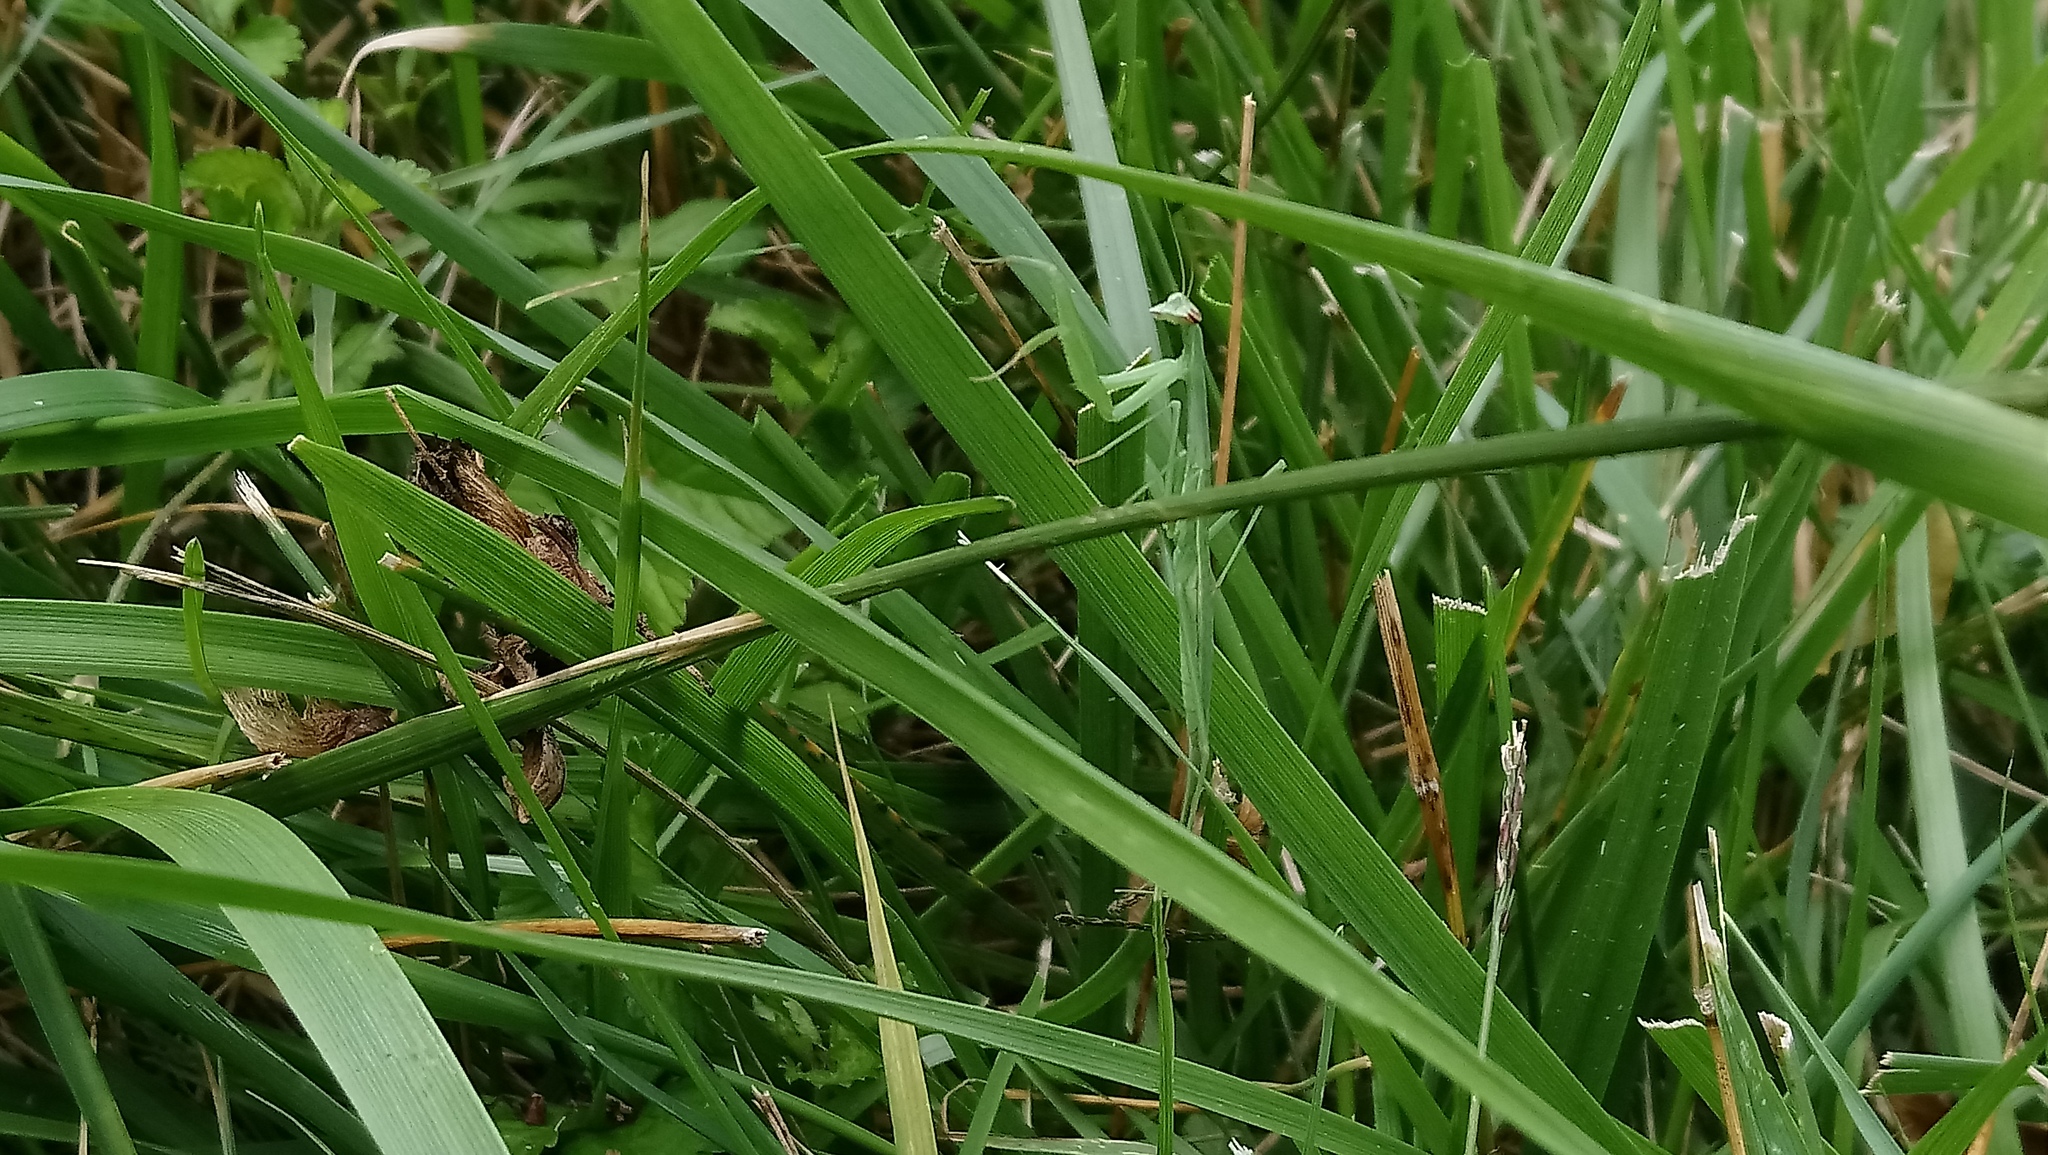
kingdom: Animalia
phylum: Arthropoda
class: Insecta
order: Mantodea
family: Mantidae
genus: Tenodera
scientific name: Tenodera sinensis
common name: Chinese mantis
